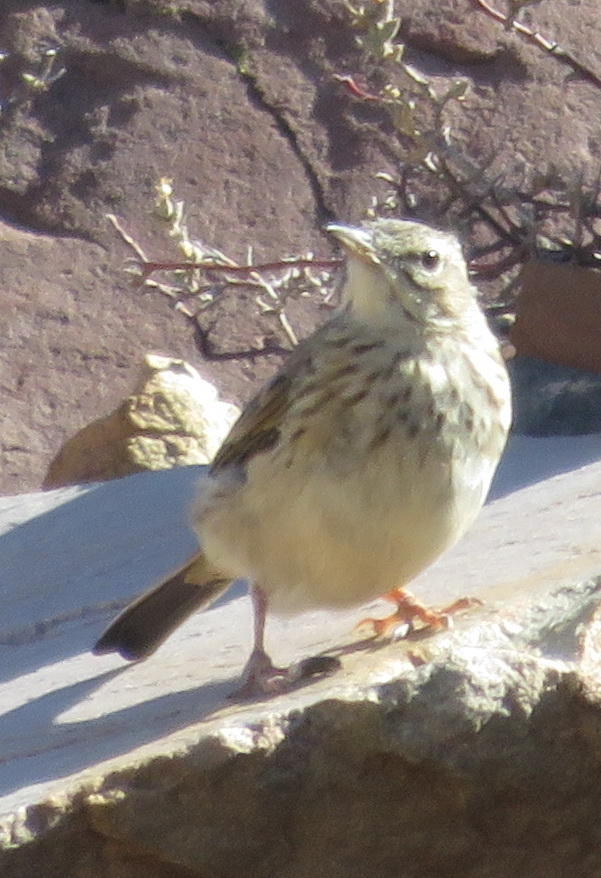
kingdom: Animalia
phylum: Chordata
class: Aves
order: Passeriformes
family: Motacillidae
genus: Anthus
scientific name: Anthus nicholsoni
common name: Nicholson's pipit
